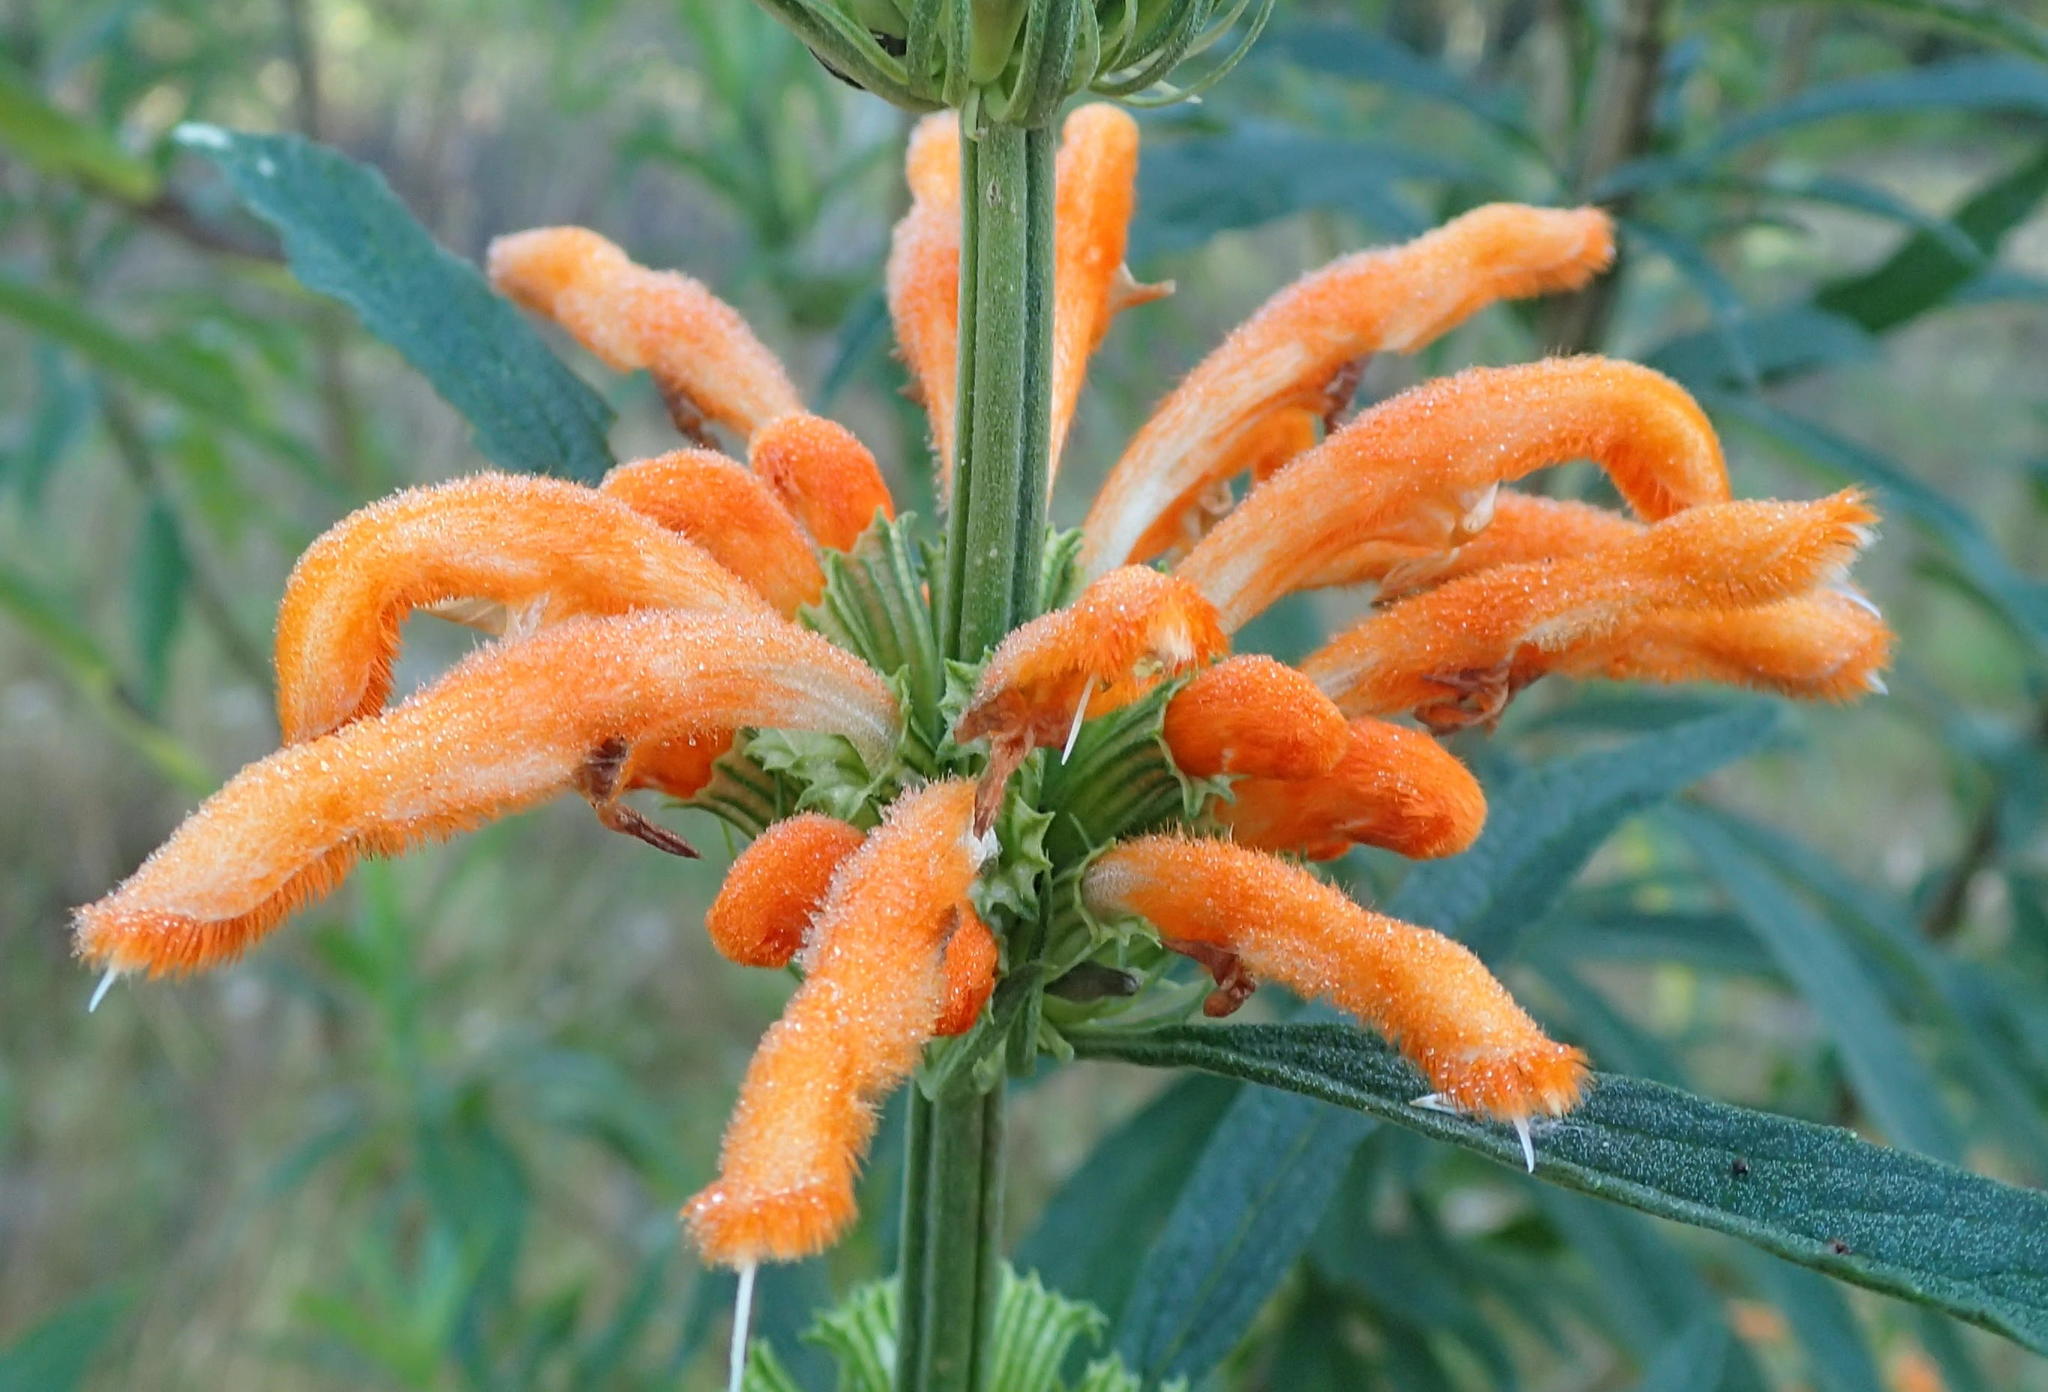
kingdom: Plantae
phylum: Tracheophyta
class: Magnoliopsida
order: Lamiales
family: Lamiaceae
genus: Leonotis
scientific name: Leonotis leonurus
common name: Lion's ear
